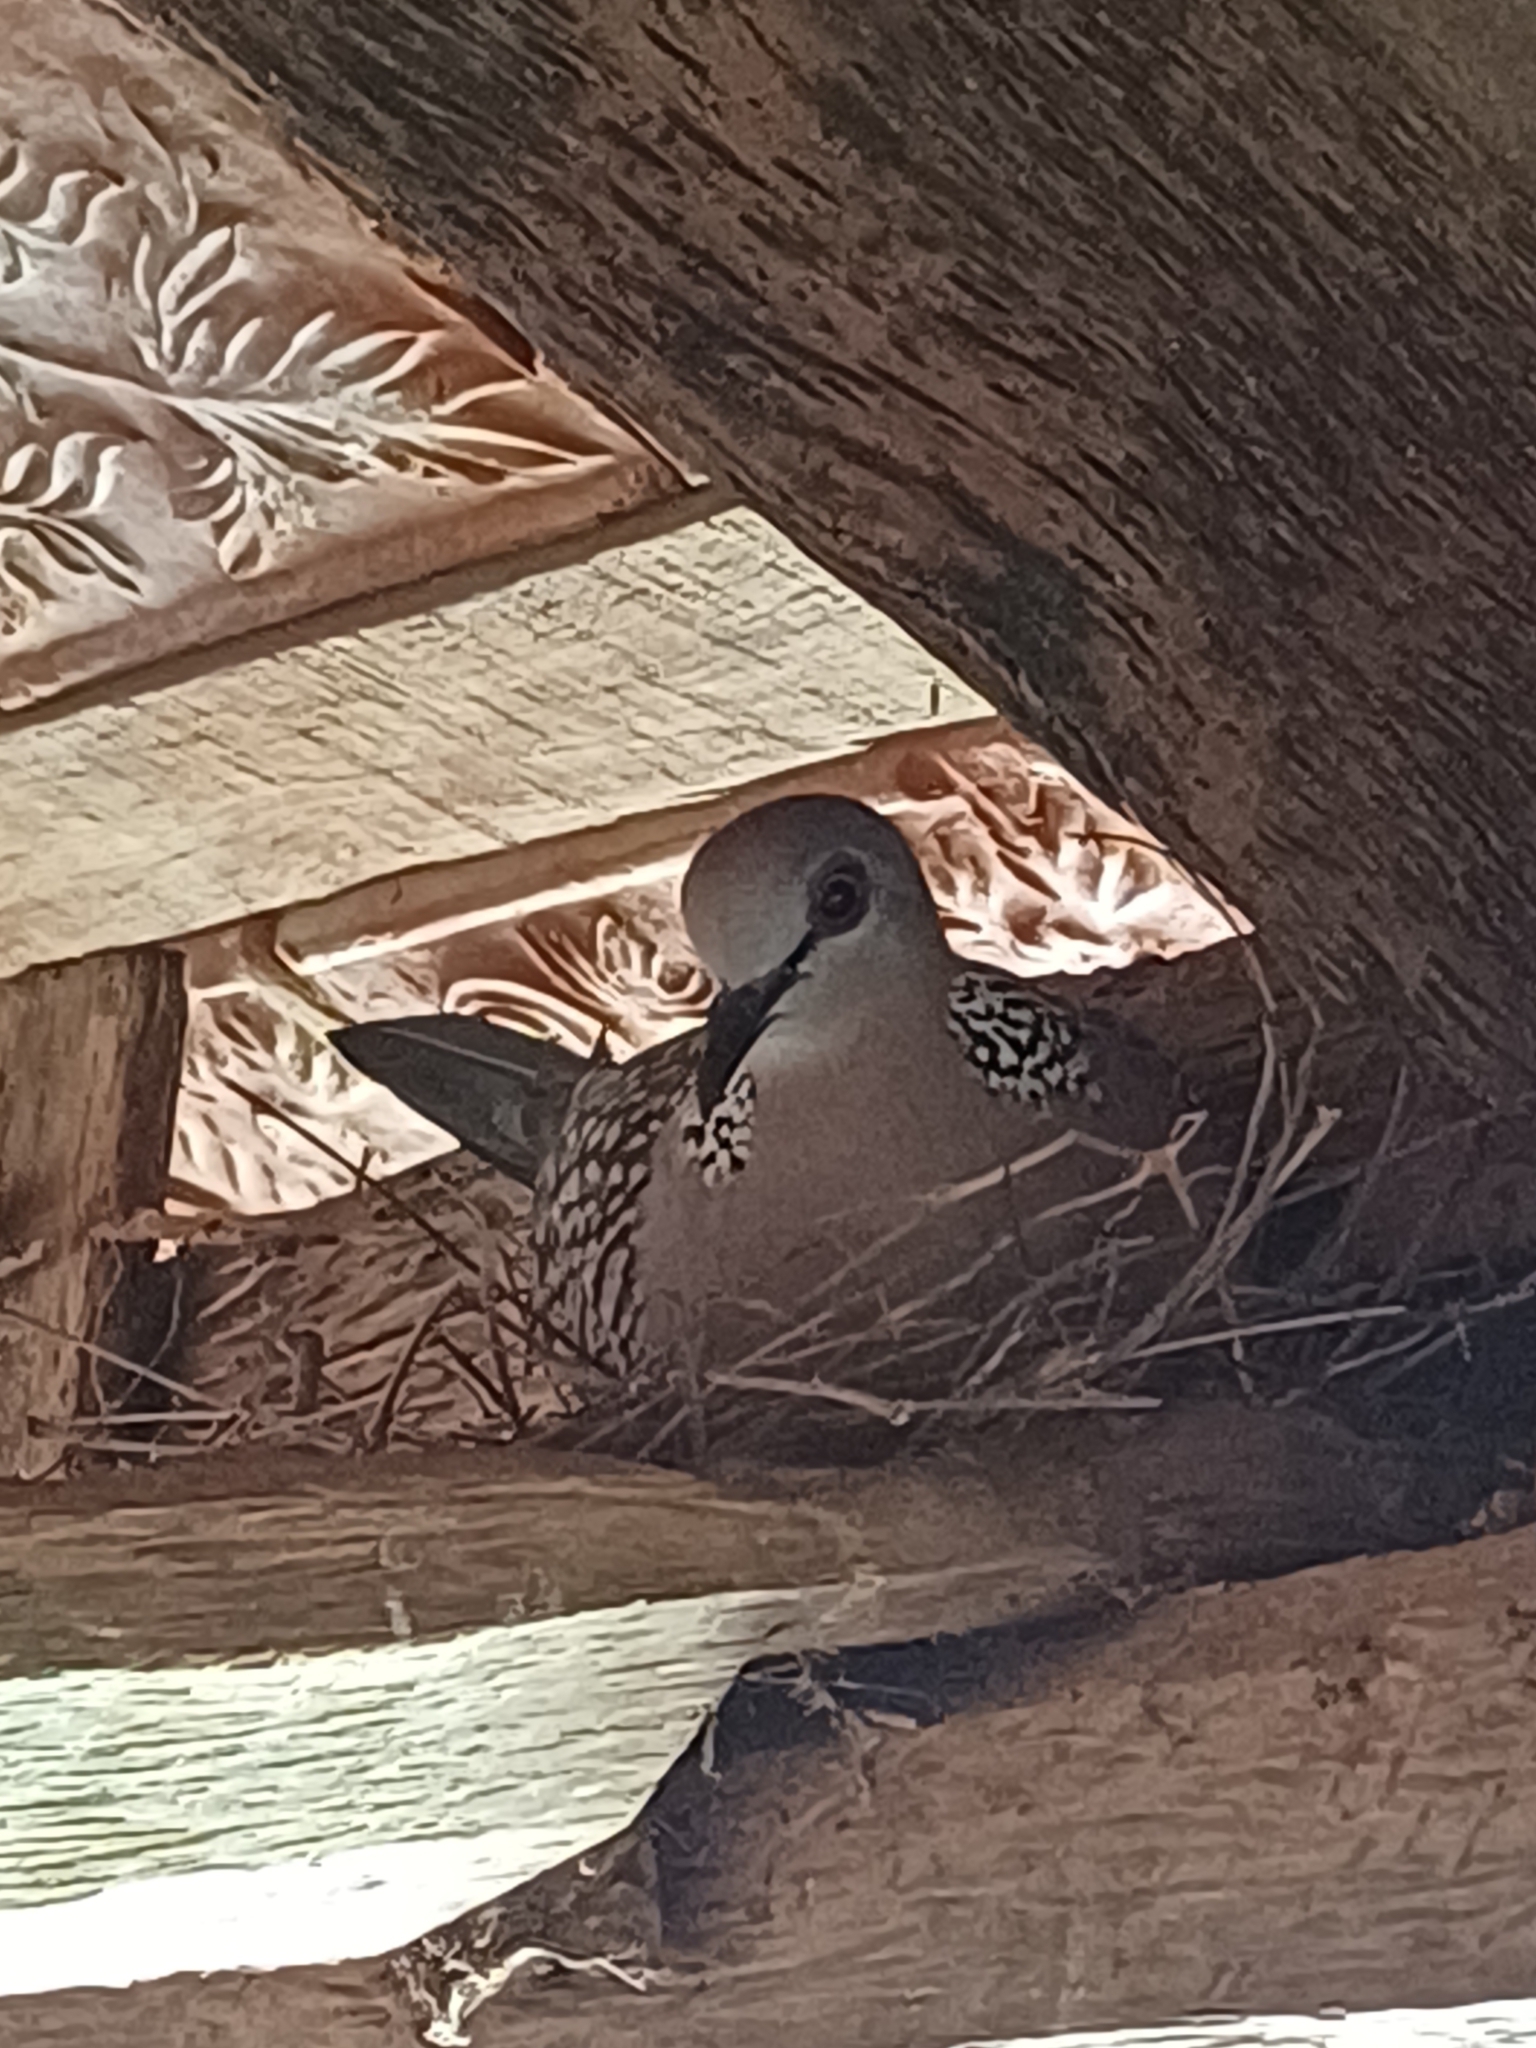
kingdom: Animalia
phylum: Chordata
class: Aves
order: Columbiformes
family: Columbidae
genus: Spilopelia
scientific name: Spilopelia chinensis
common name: Spotted dove
